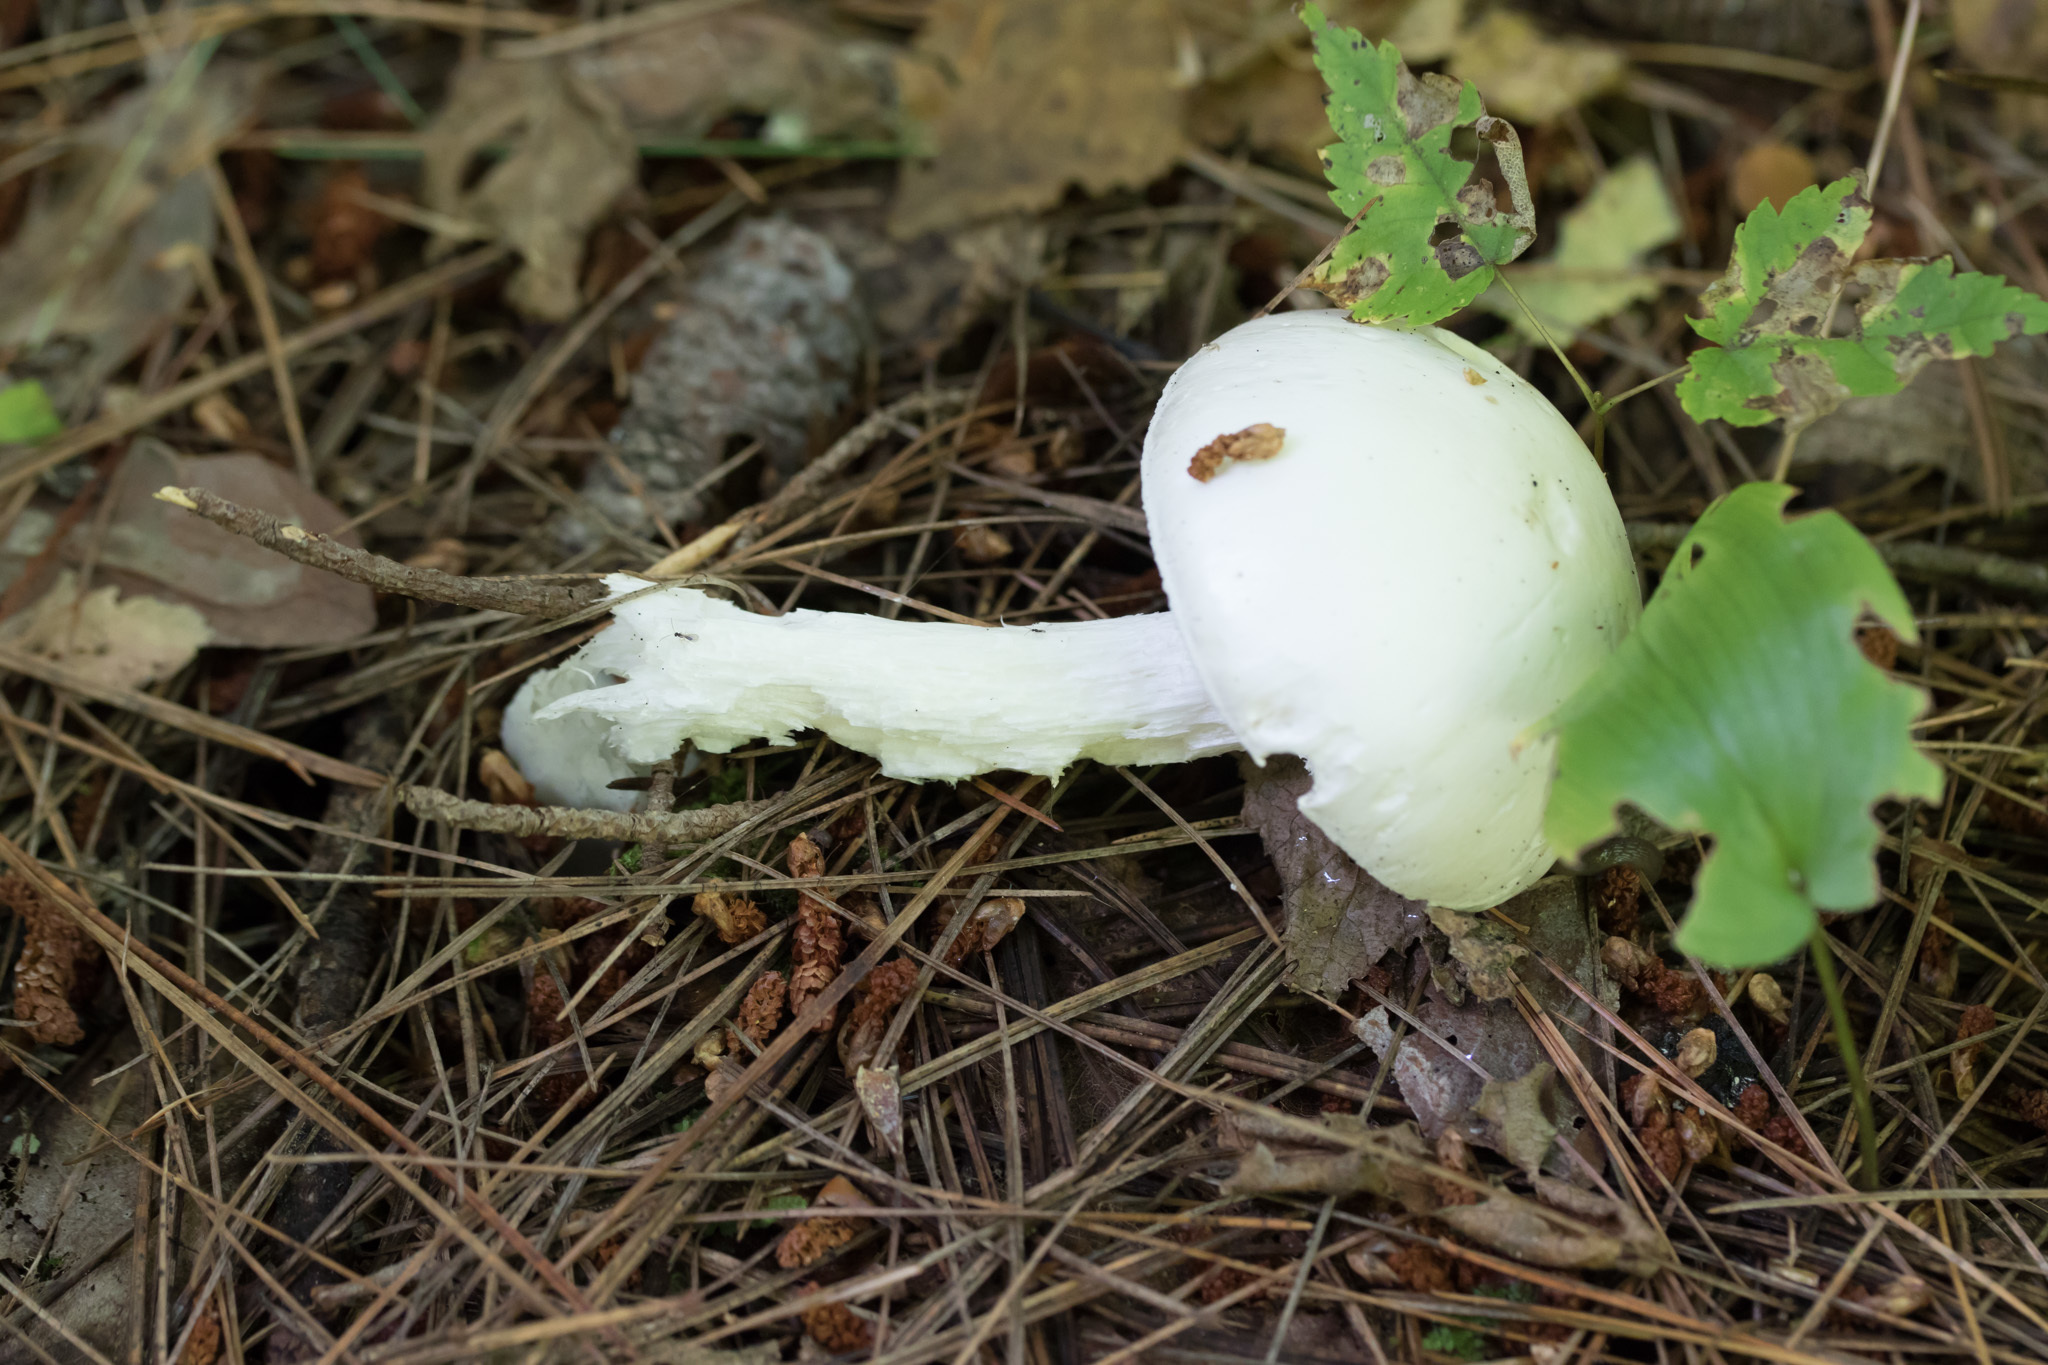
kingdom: Fungi
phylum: Basidiomycota
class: Agaricomycetes
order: Agaricales
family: Amanitaceae
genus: Amanita
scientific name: Amanita bisporigera
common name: Eastern north american destroying angel
